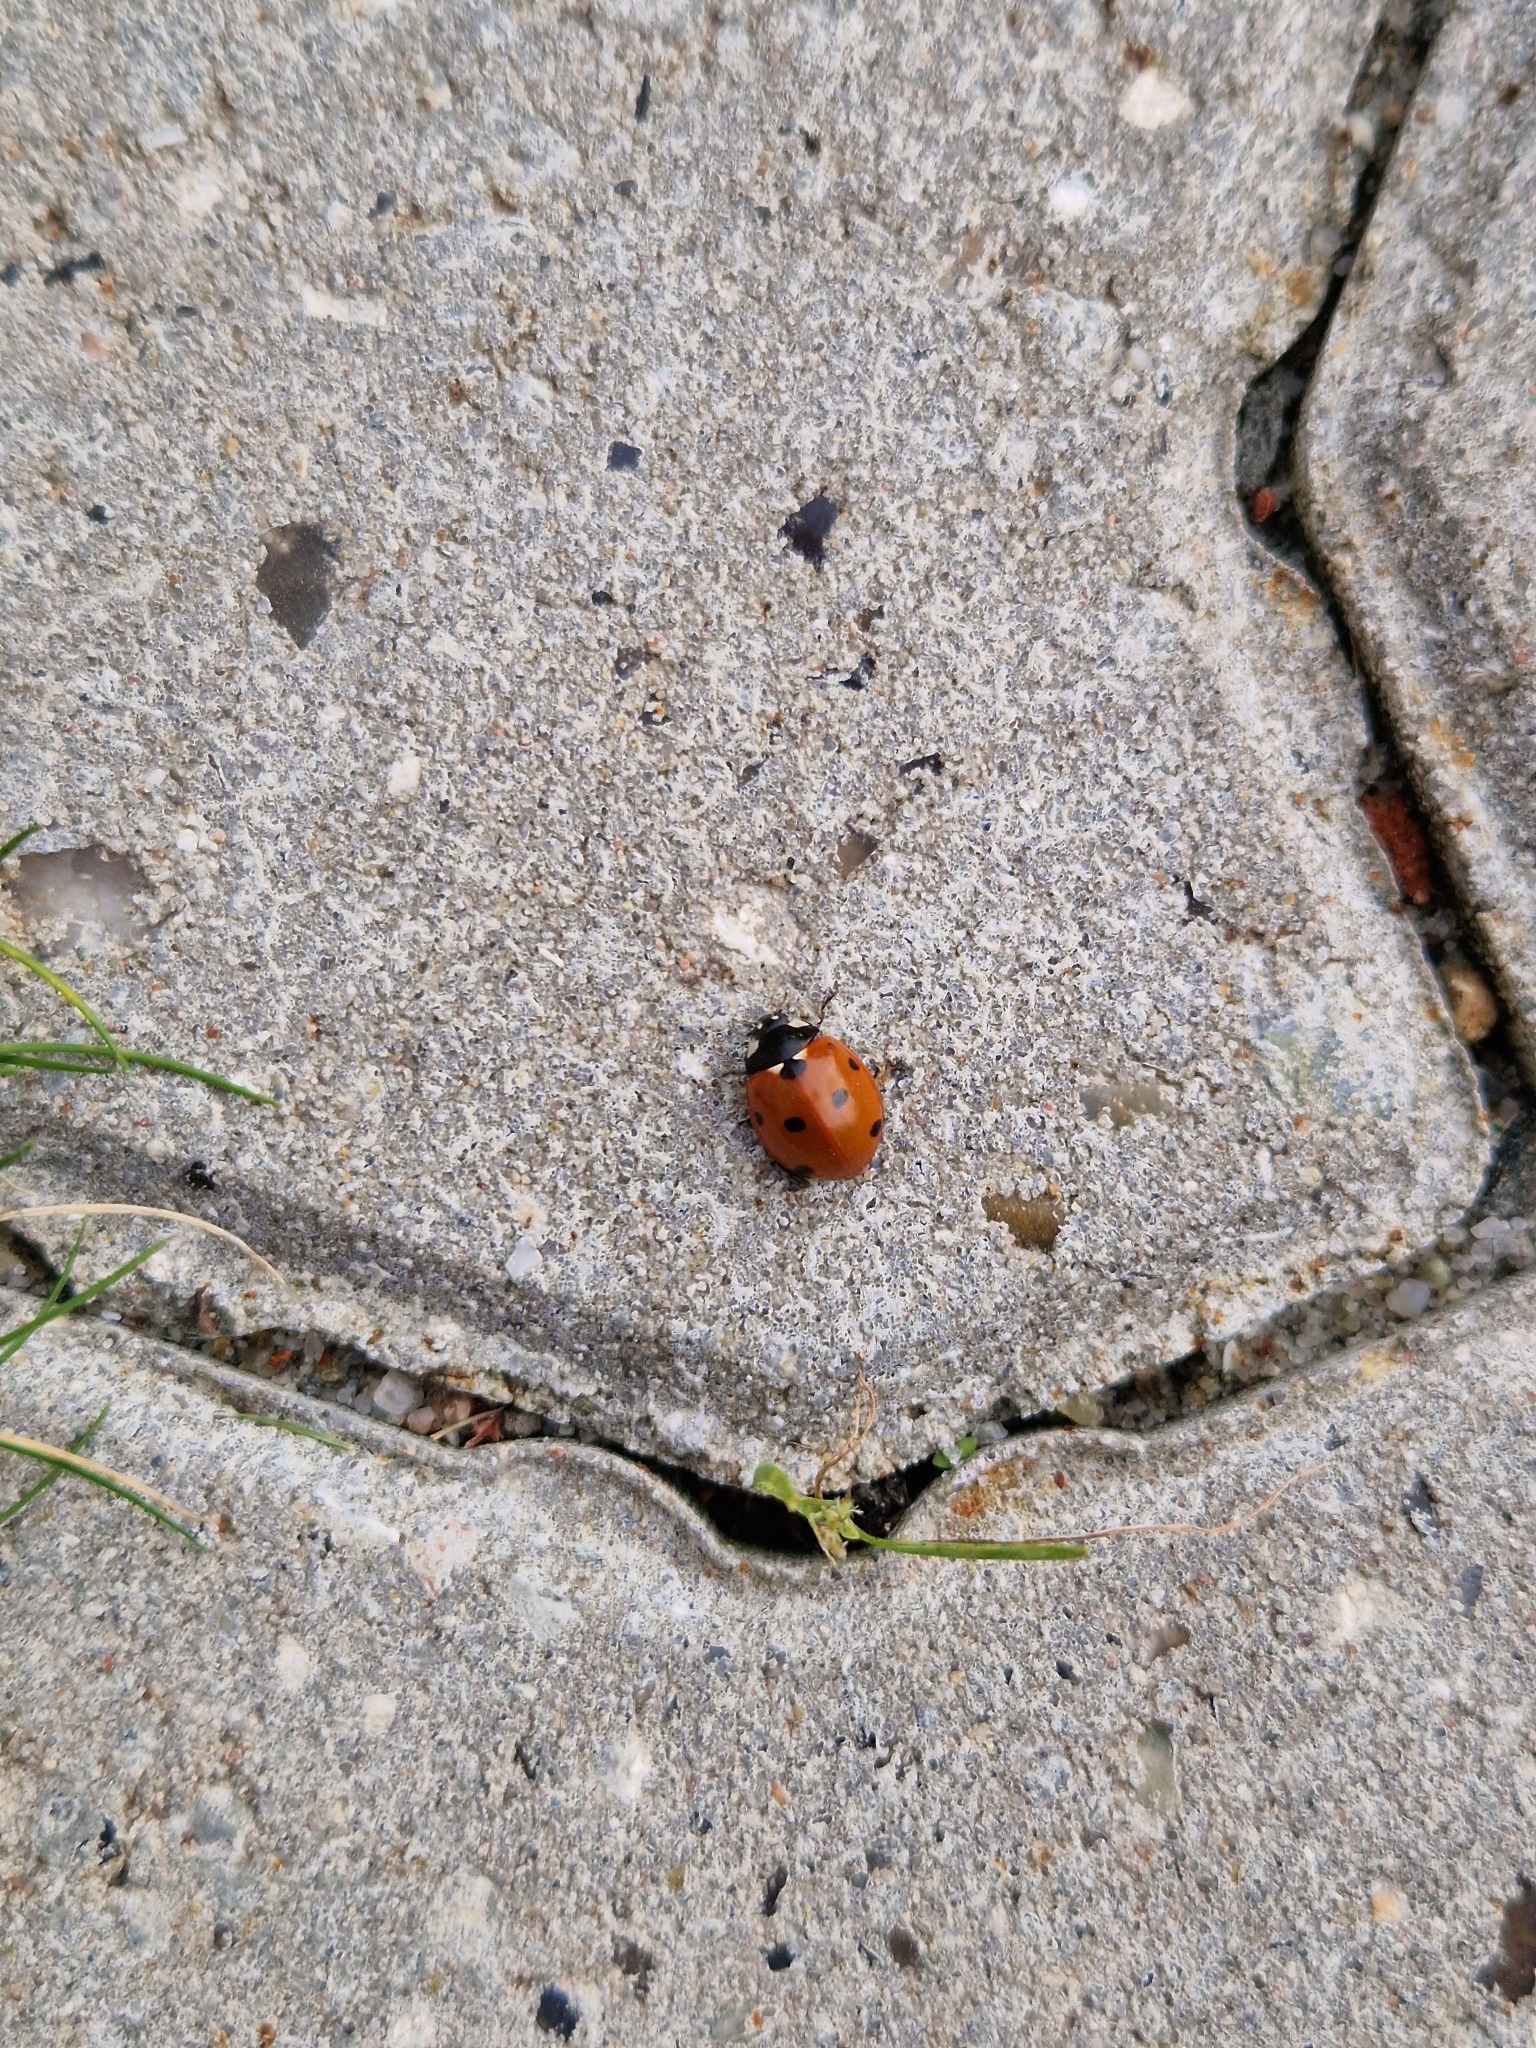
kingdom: Animalia
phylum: Arthropoda
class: Insecta
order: Coleoptera
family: Coccinellidae
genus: Coccinella
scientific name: Coccinella septempunctata
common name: Sevenspotted lady beetle
